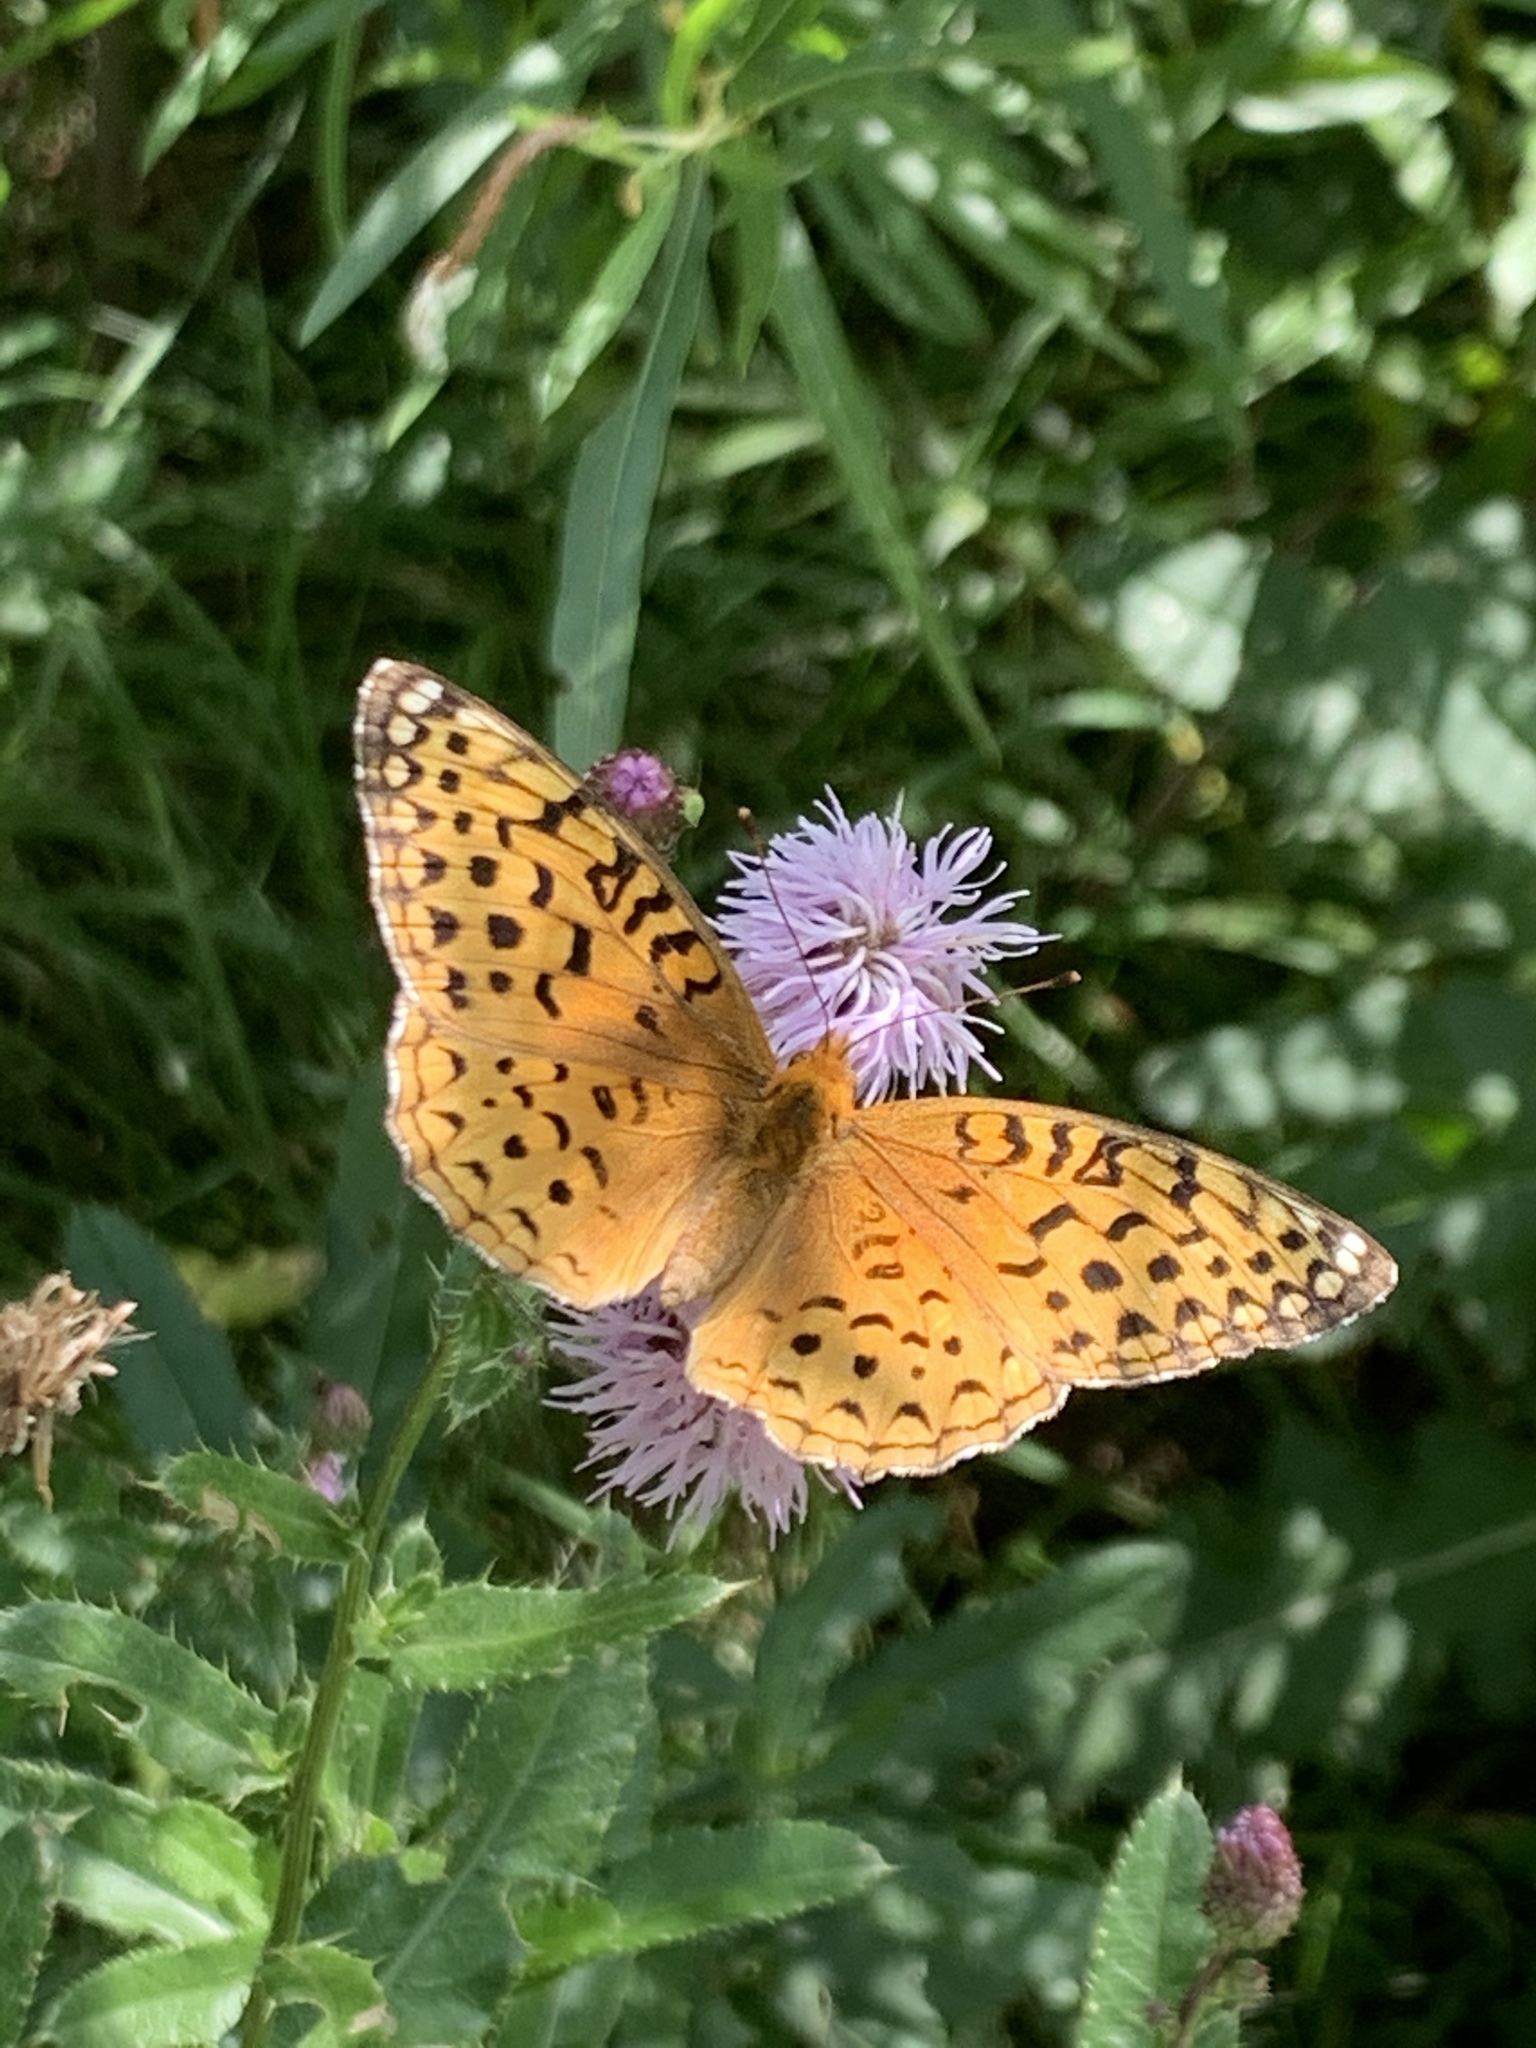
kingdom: Animalia
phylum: Arthropoda
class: Insecta
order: Lepidoptera
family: Nymphalidae
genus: Speyeria
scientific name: Speyeria aphrodite
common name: Aphrodite friitllary
